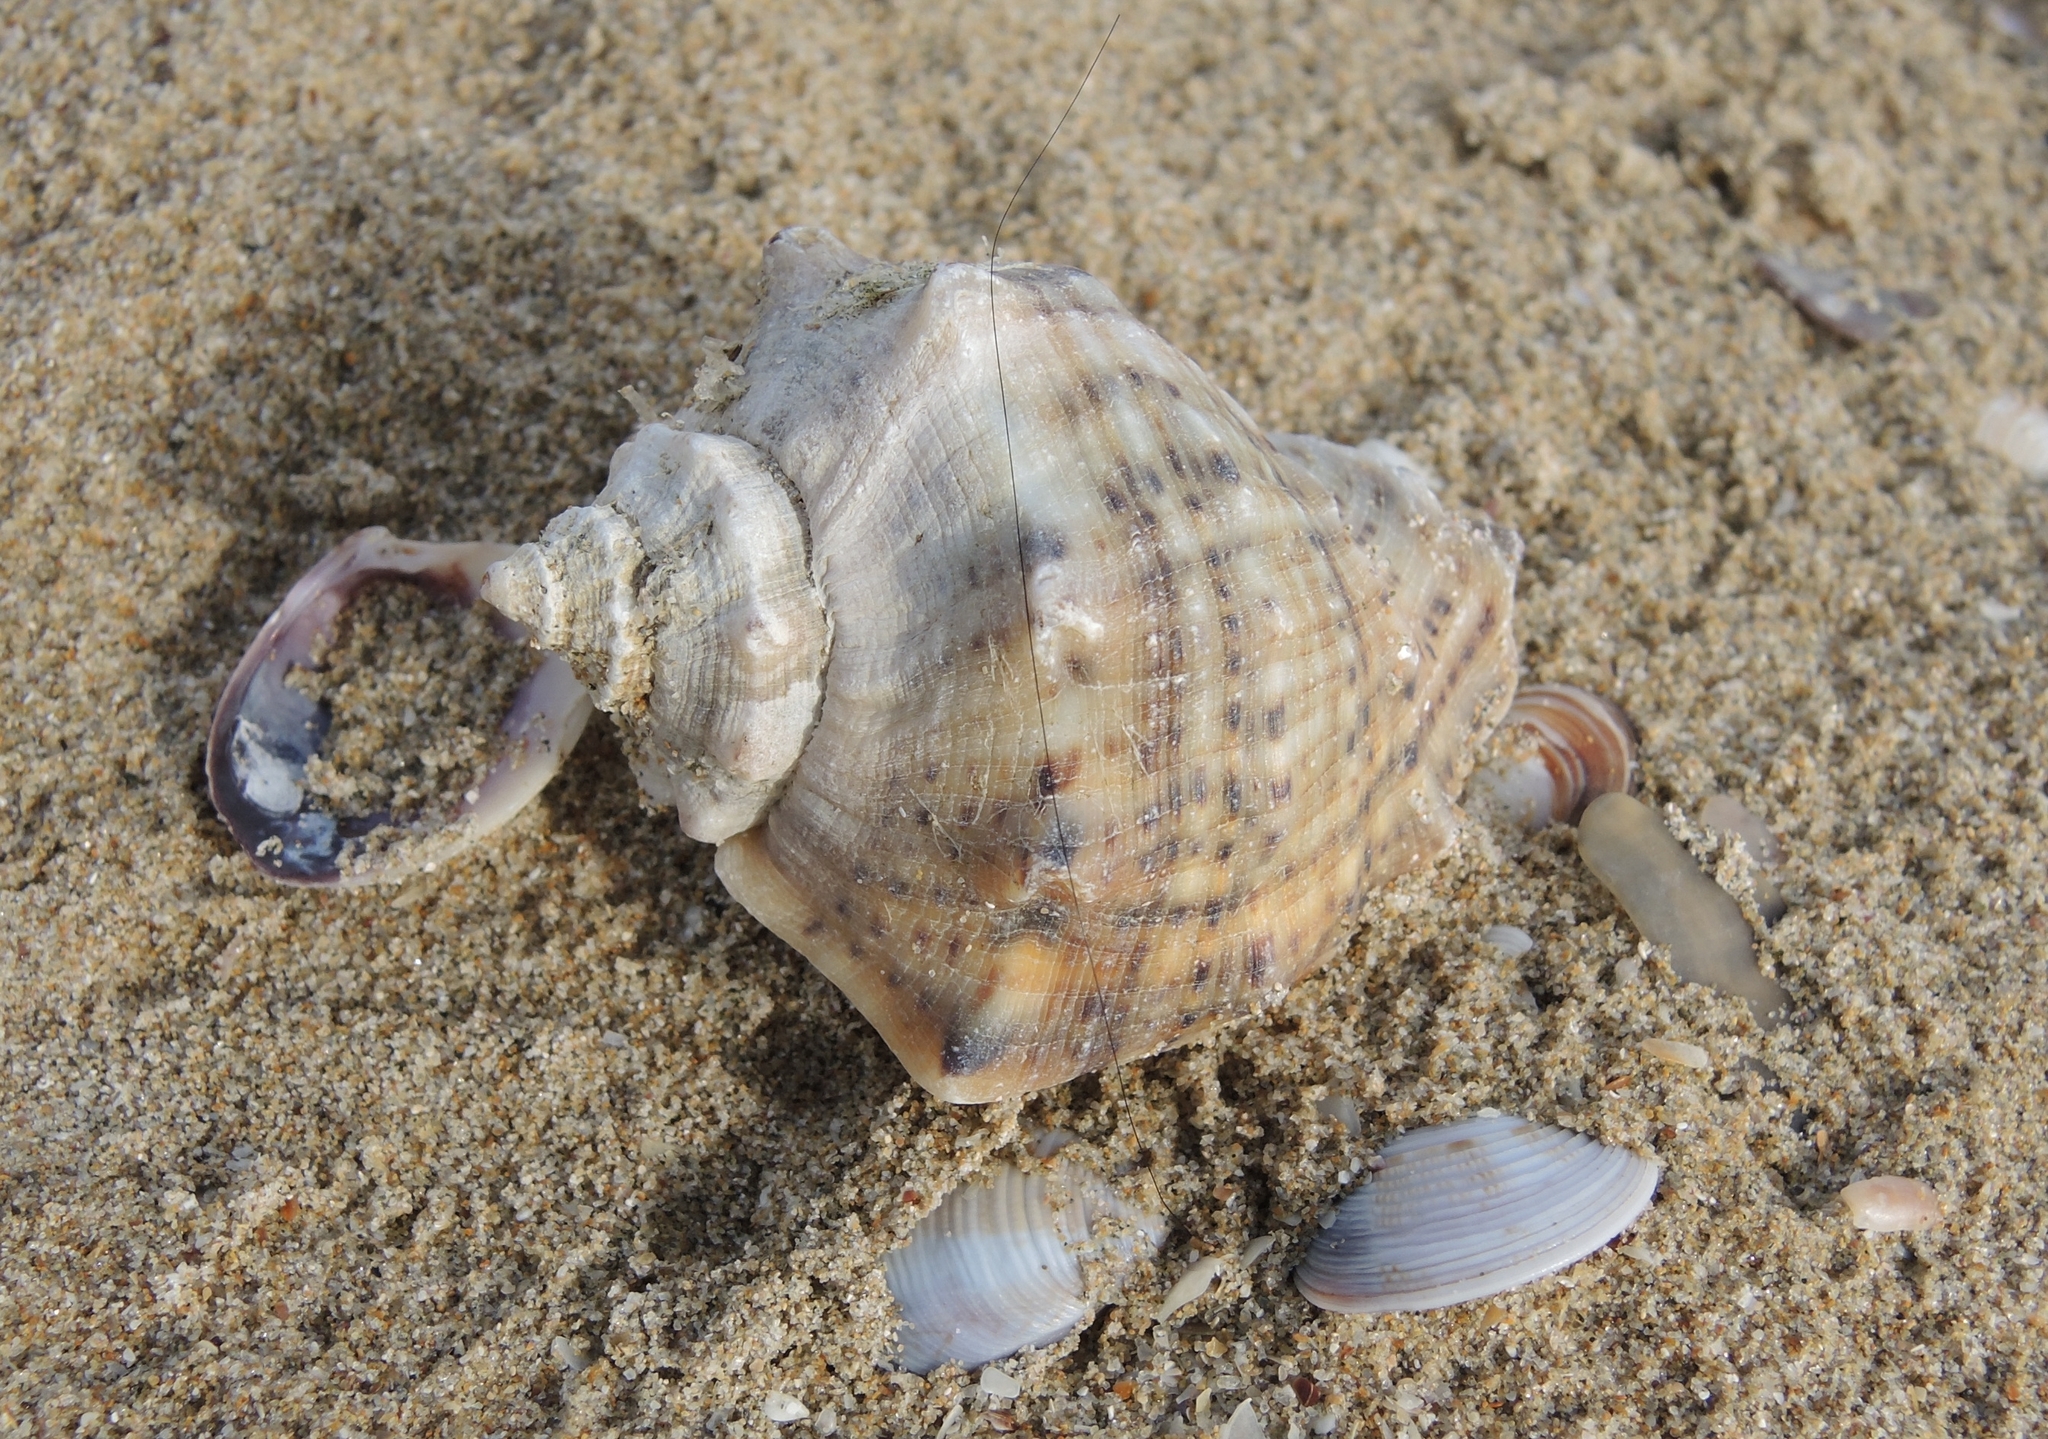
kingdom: Animalia
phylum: Mollusca
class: Gastropoda
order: Neogastropoda
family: Muricidae
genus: Rapana
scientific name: Rapana venosa
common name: Veined rapa whelk
